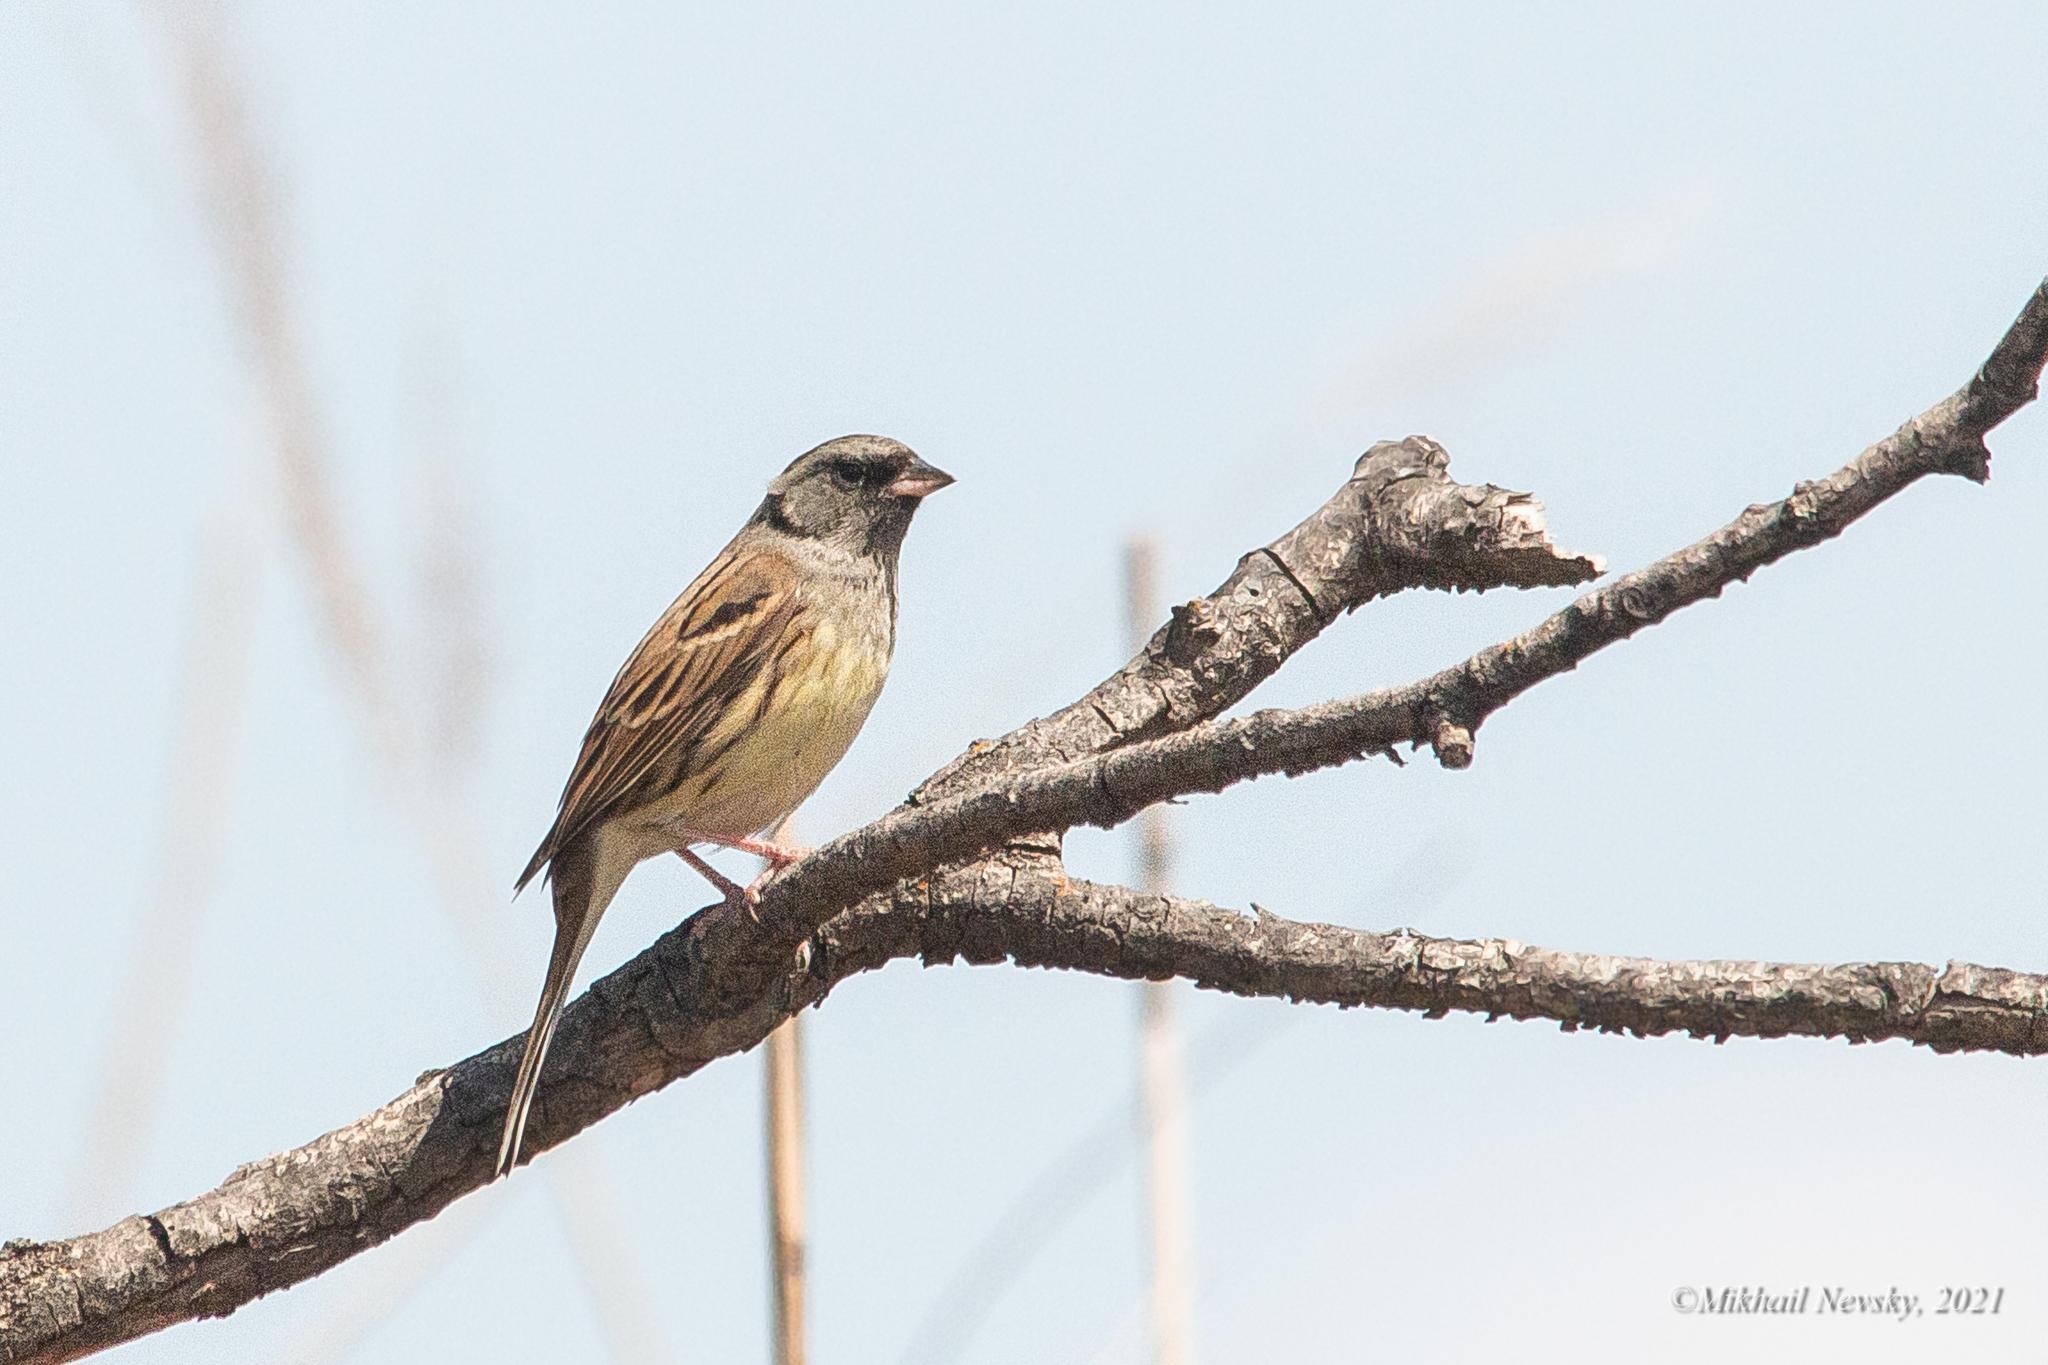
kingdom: Animalia
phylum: Chordata
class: Aves
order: Passeriformes
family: Emberizidae
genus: Emberiza
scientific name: Emberiza spodocephala
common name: Black-faced bunting
